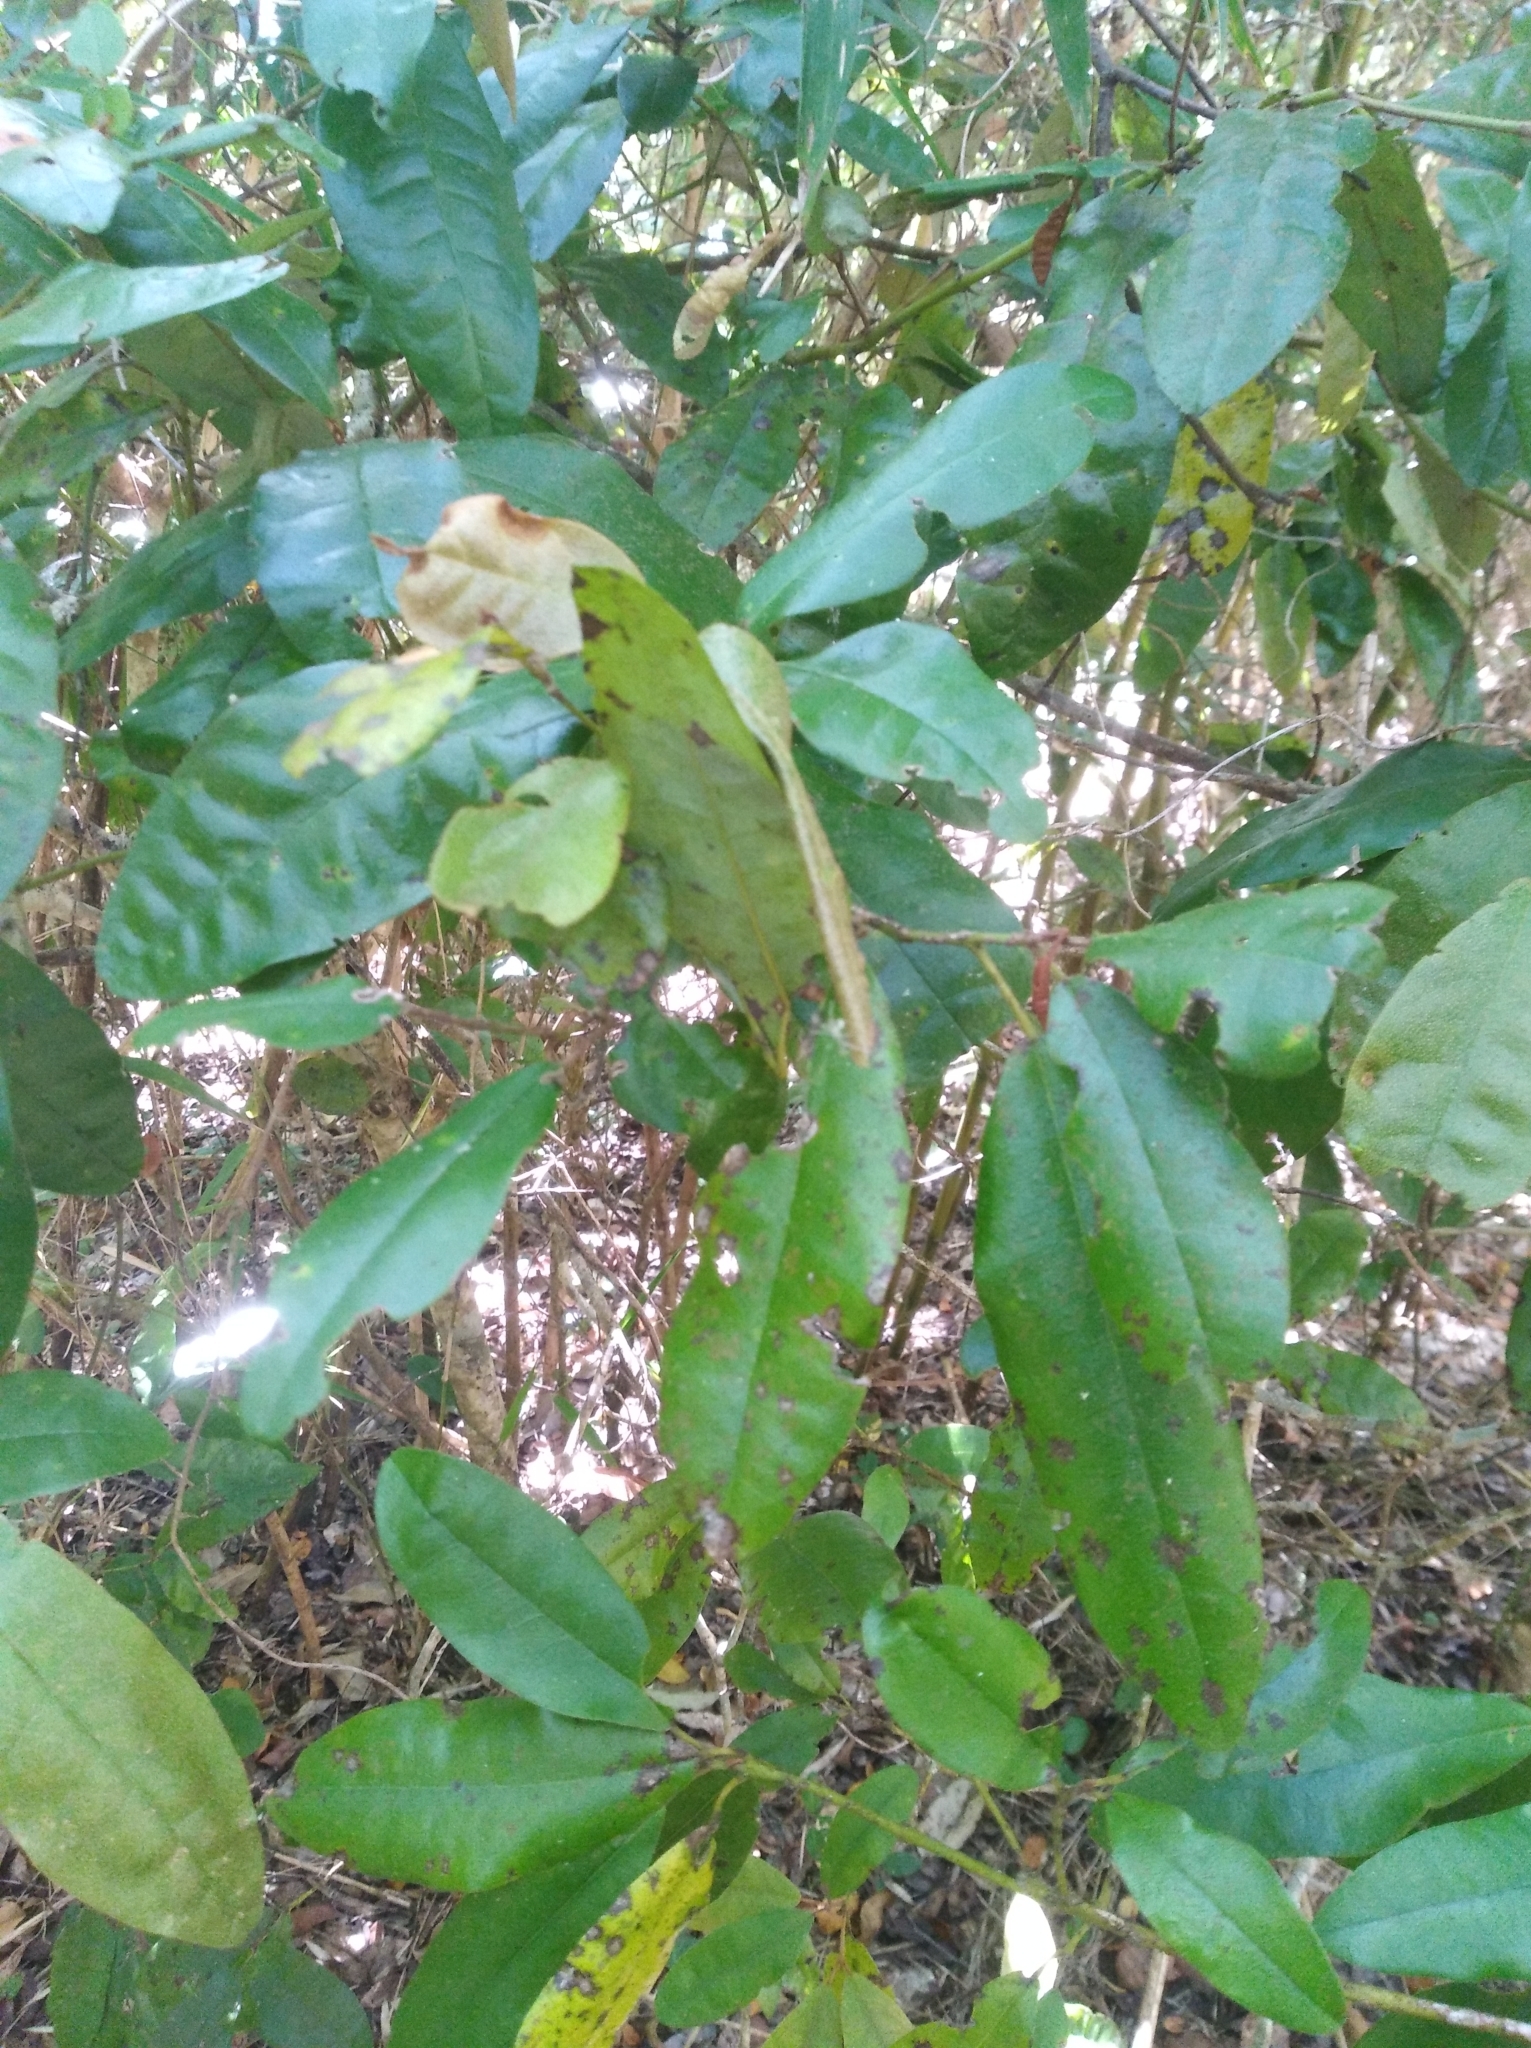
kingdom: Plantae
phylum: Tracheophyta
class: Magnoliopsida
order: Berberidopsidales
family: Aextoxicaceae
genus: Aextoxicon
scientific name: Aextoxicon punctatum
